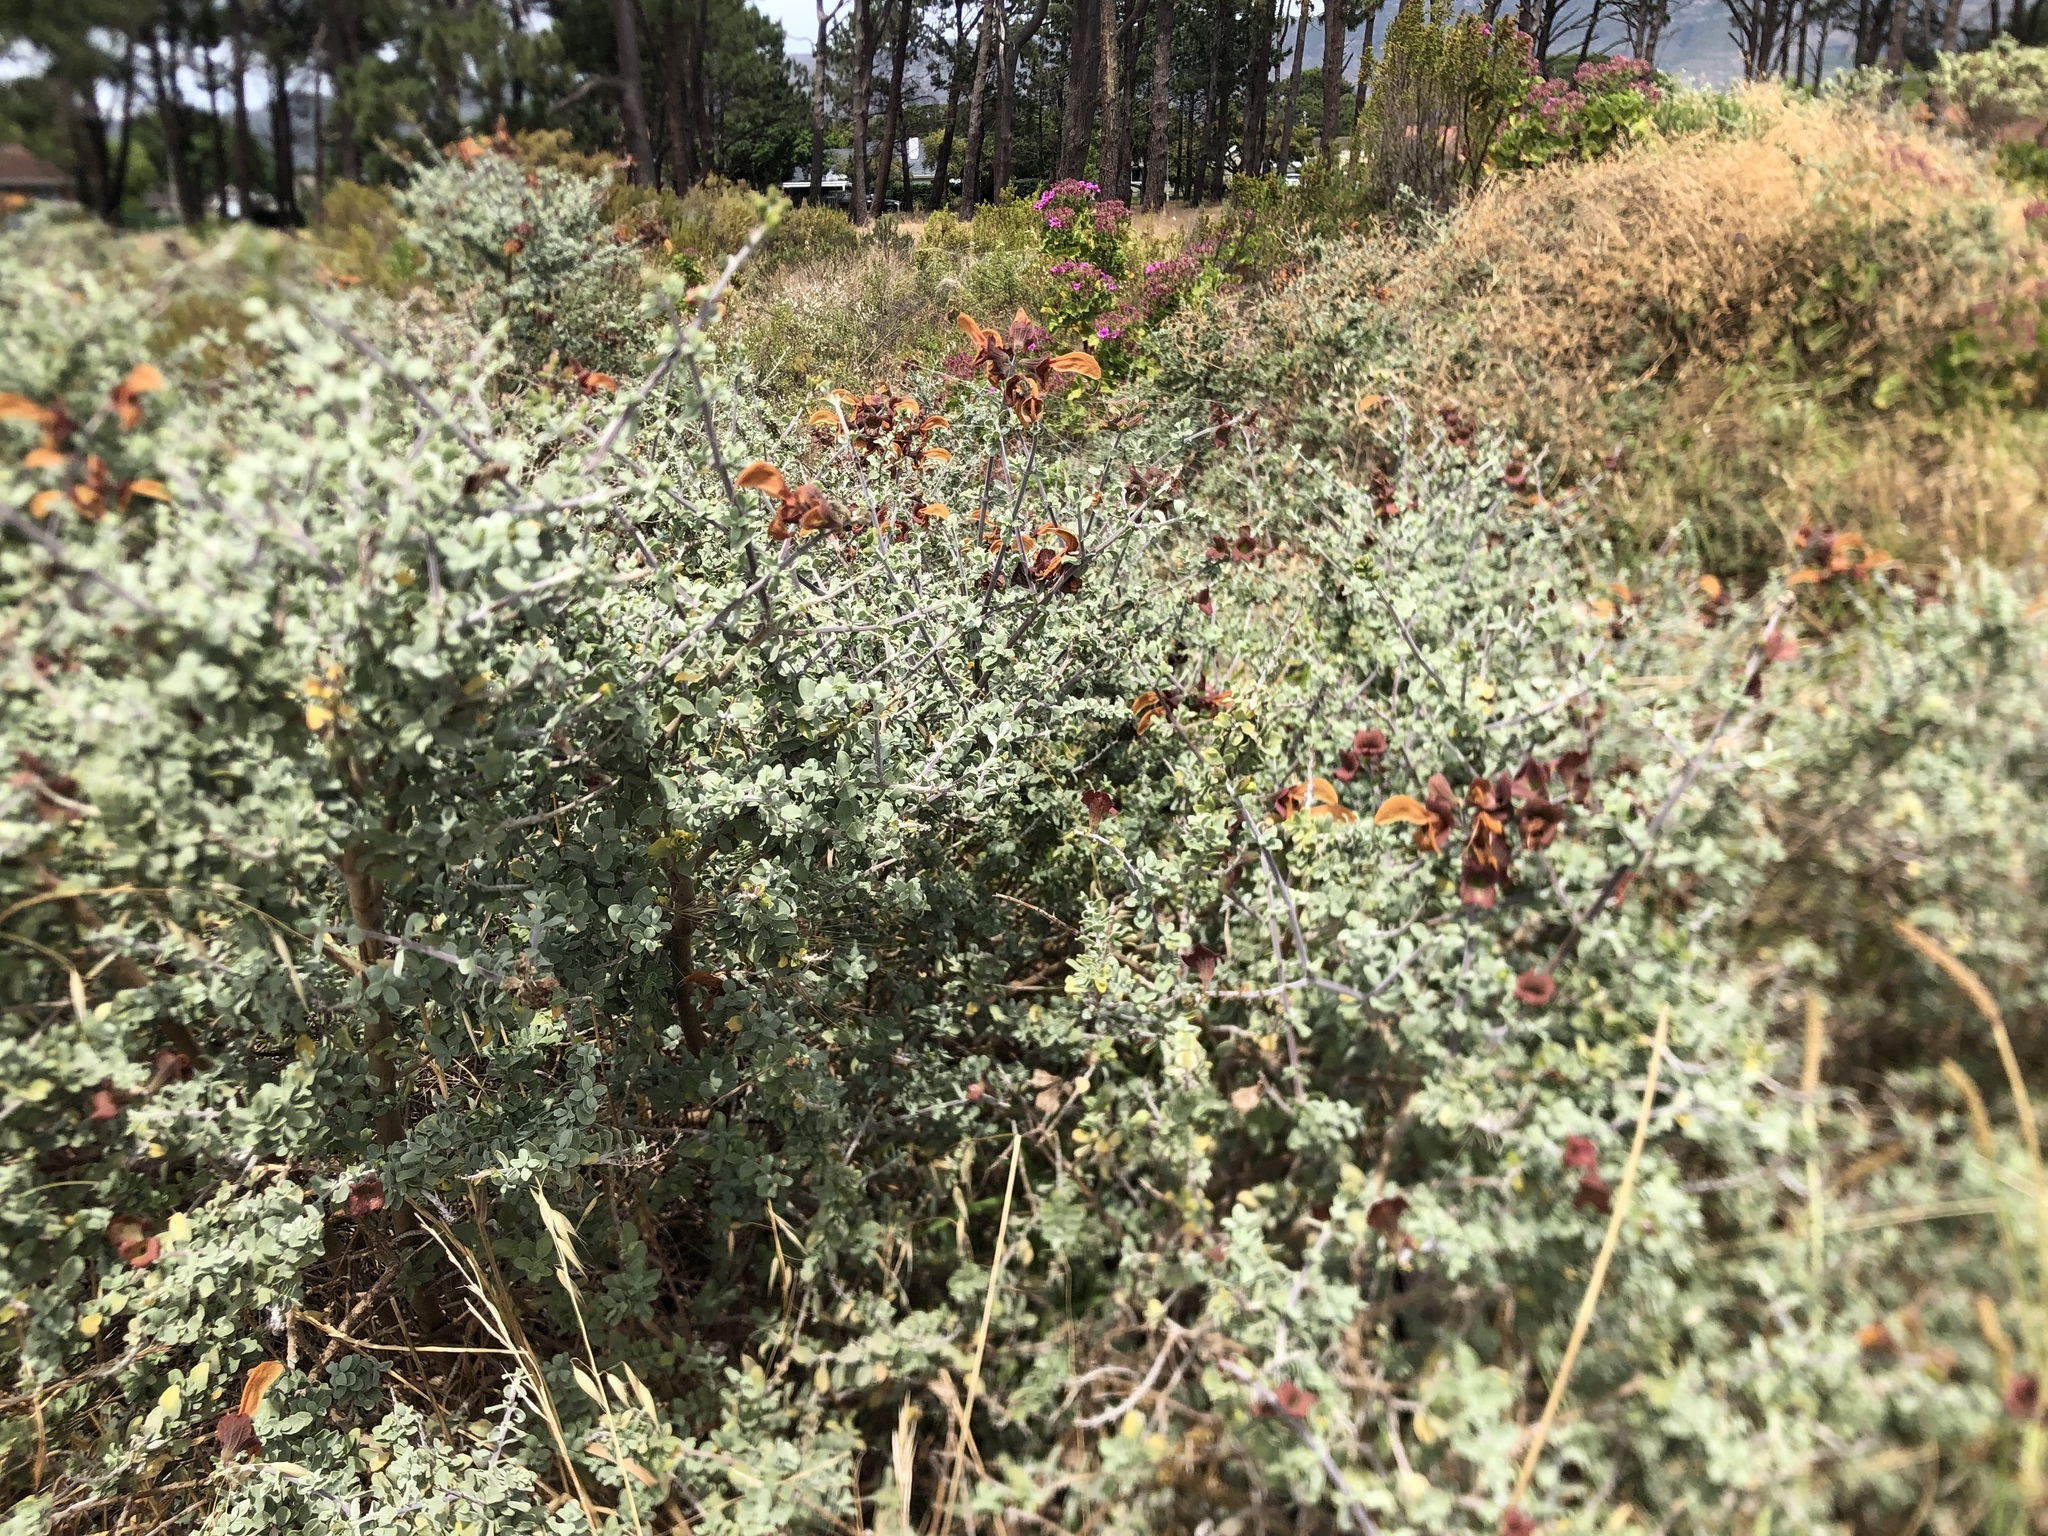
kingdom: Plantae
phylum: Tracheophyta
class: Magnoliopsida
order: Lamiales
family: Lamiaceae
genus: Salvia
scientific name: Salvia aurea
